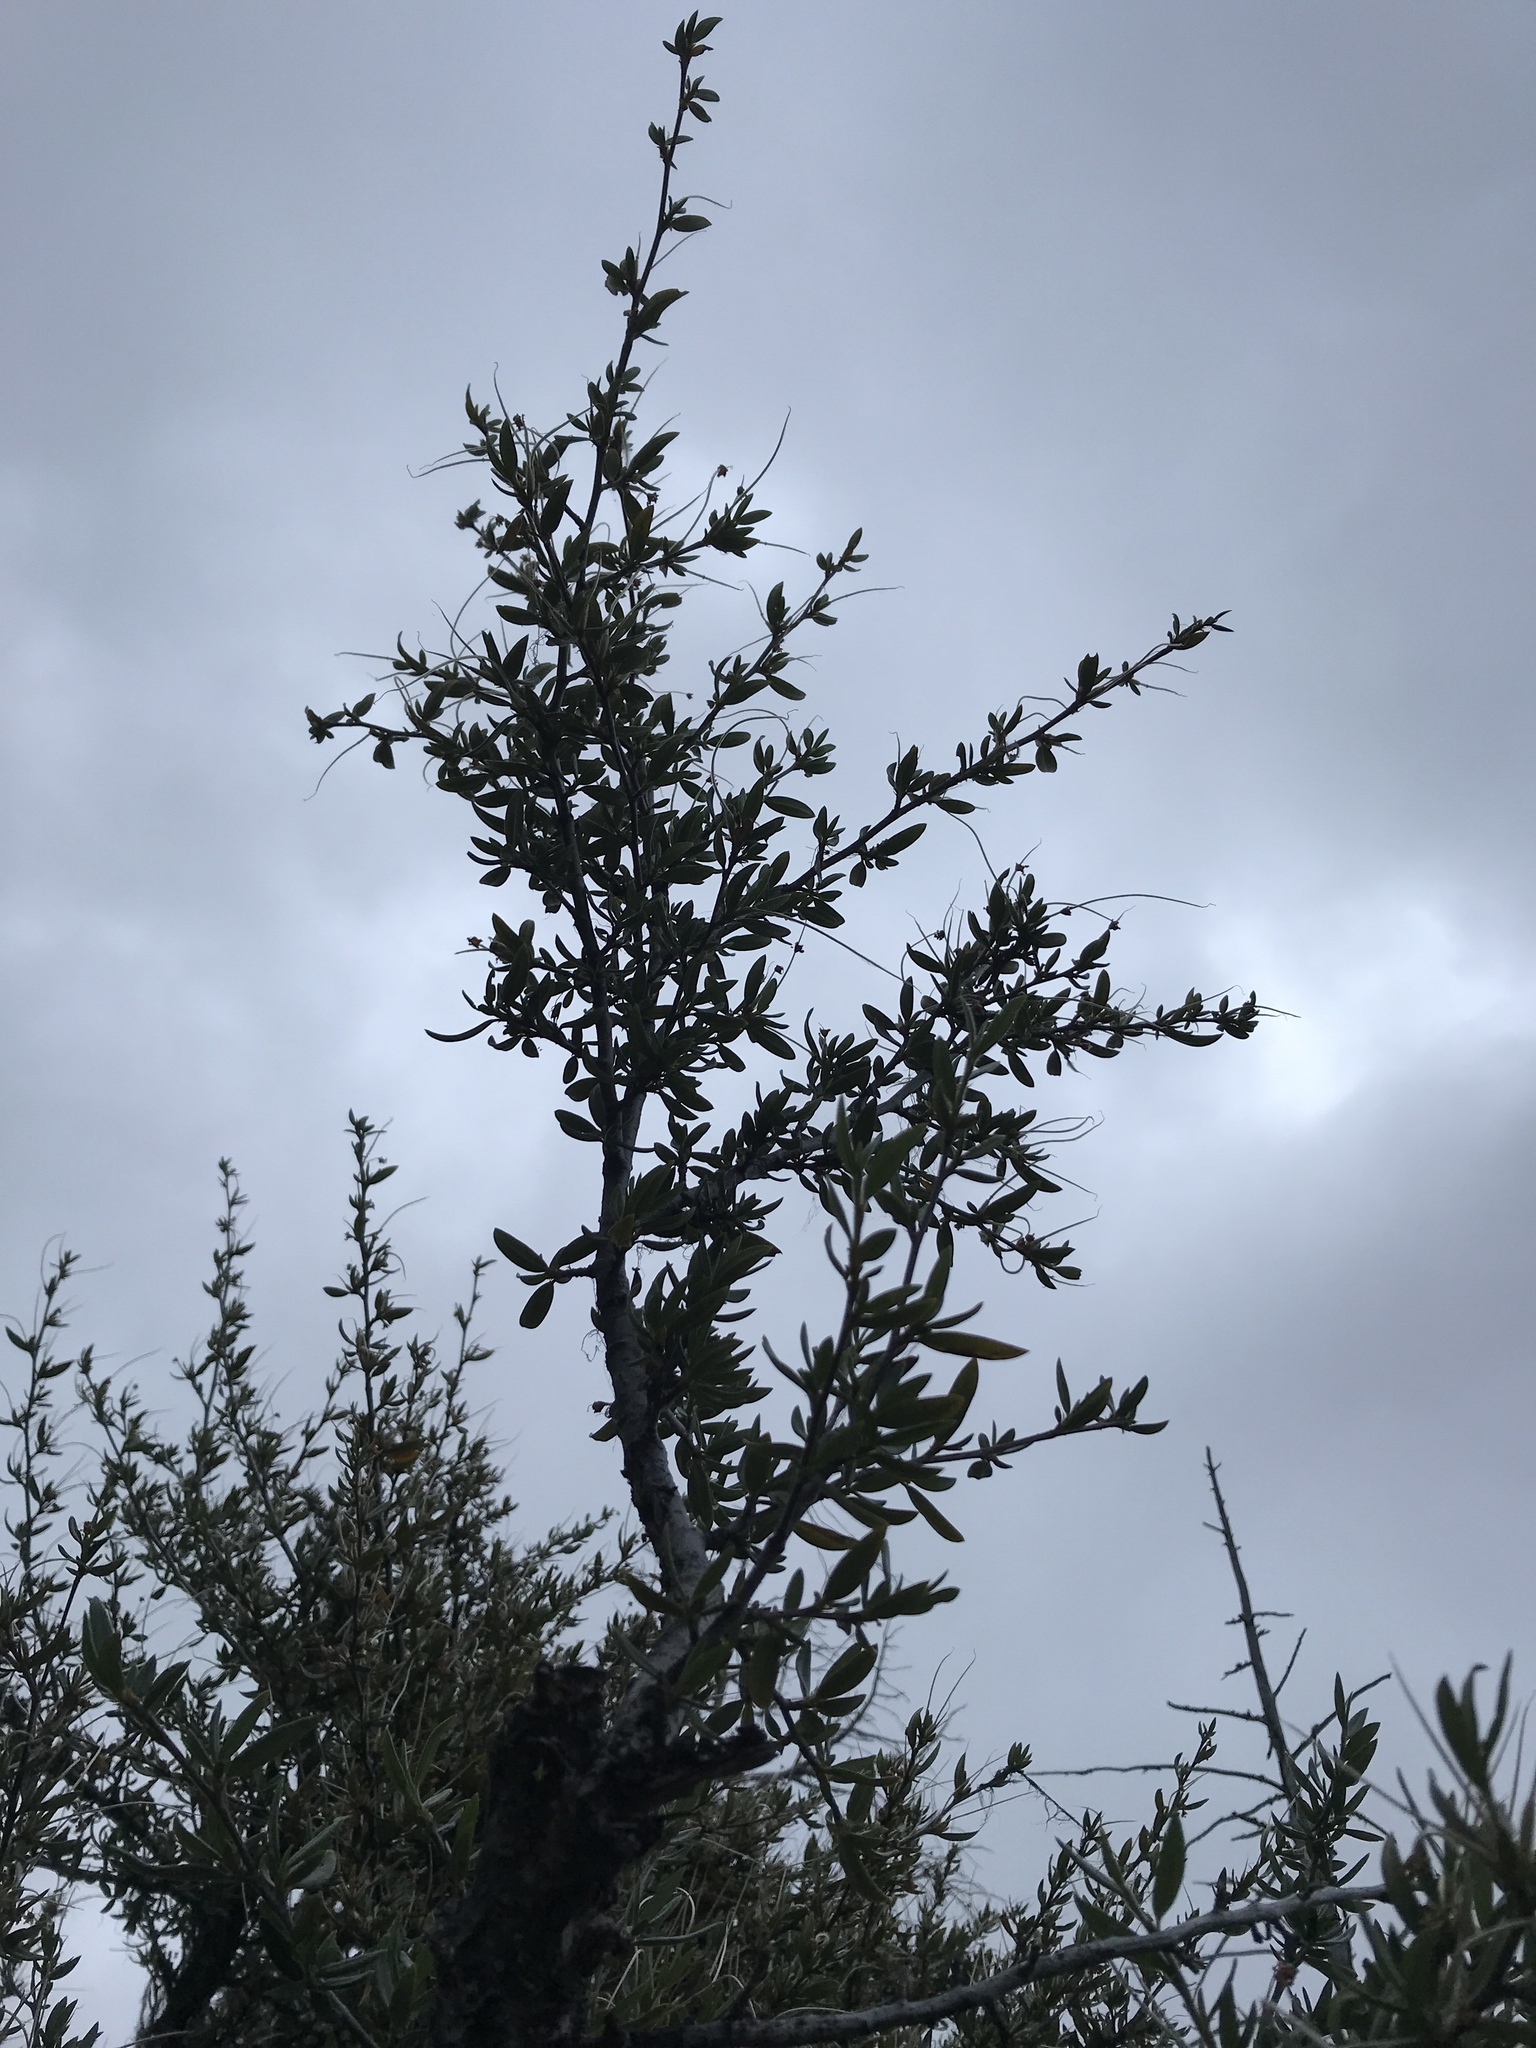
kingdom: Plantae
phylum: Tracheophyta
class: Magnoliopsida
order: Rosales
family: Rosaceae
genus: Cercocarpus
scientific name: Cercocarpus ledifolius
